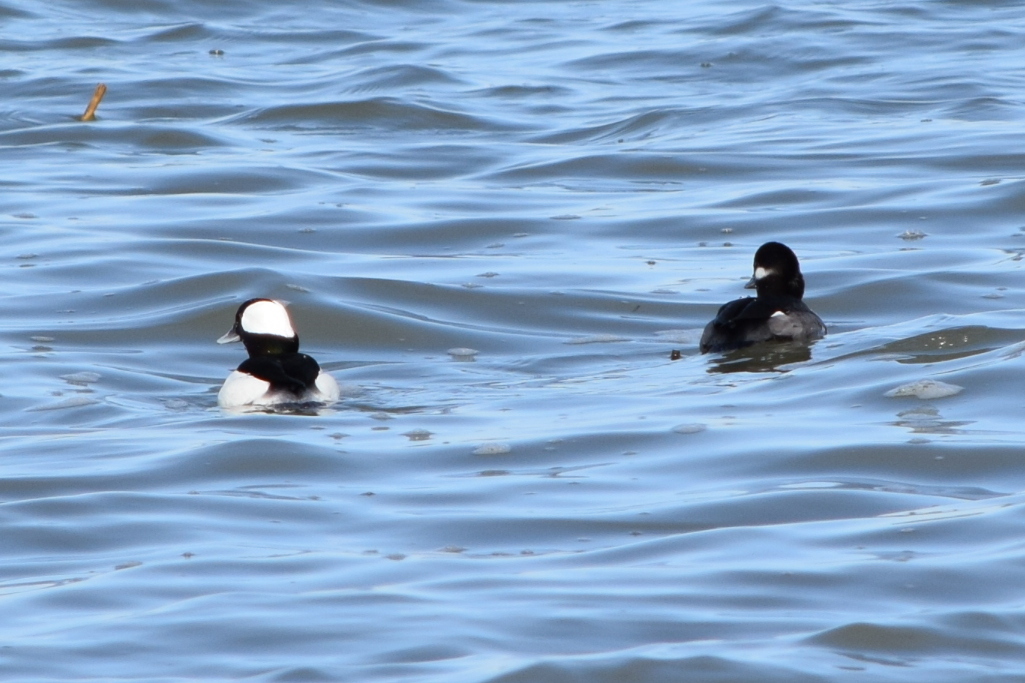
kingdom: Animalia
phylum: Chordata
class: Aves
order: Anseriformes
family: Anatidae
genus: Bucephala
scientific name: Bucephala albeola
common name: Bufflehead
